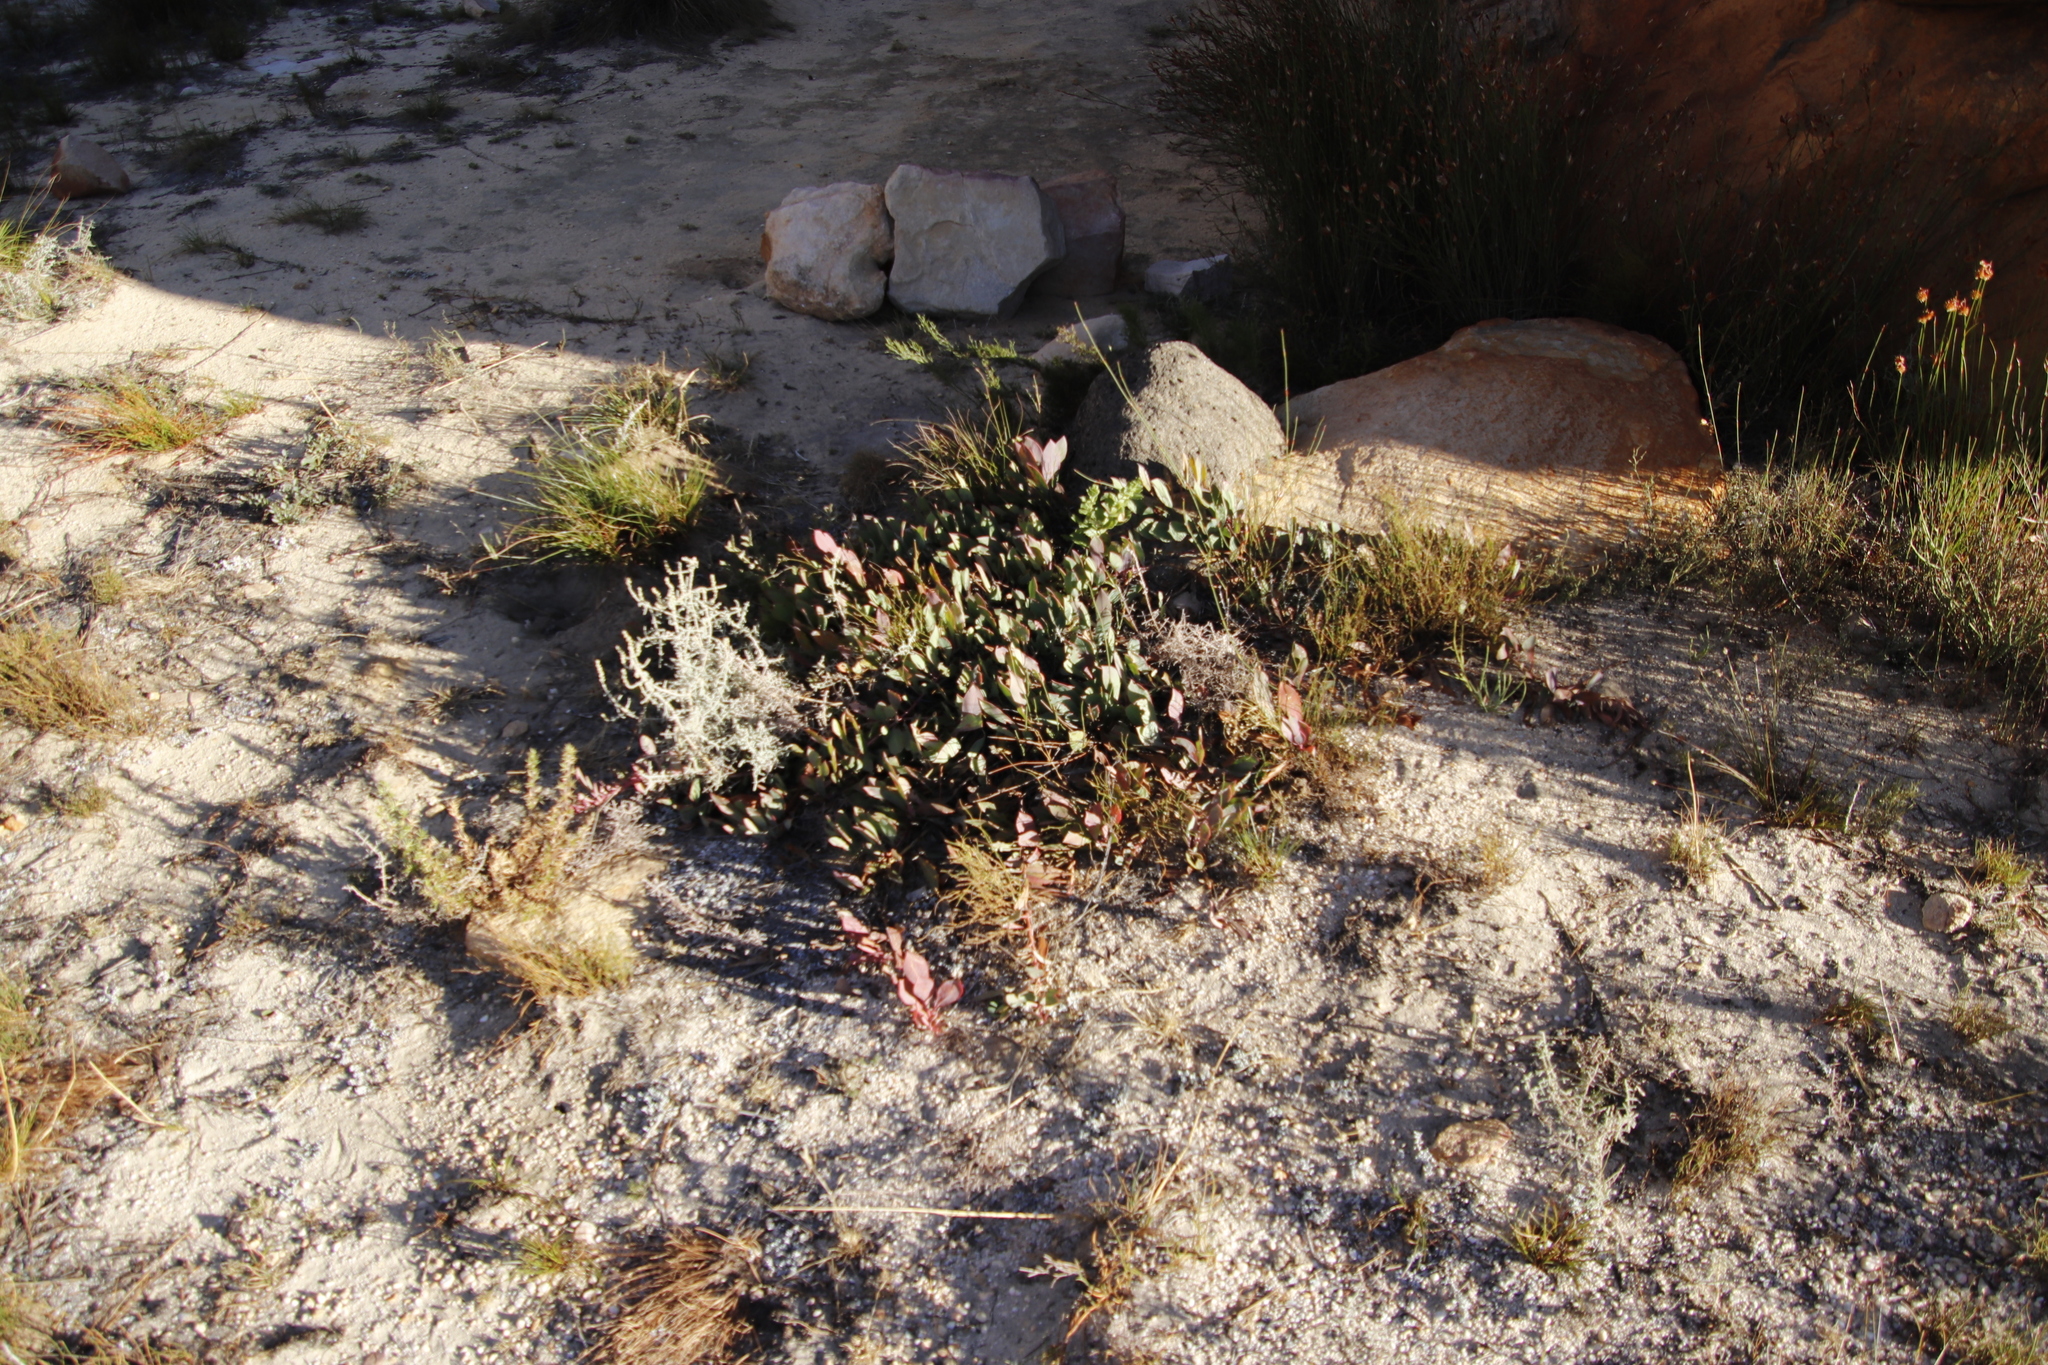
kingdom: Plantae
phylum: Tracheophyta
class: Magnoliopsida
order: Proteales
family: Proteaceae
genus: Protea
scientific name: Protea acaulos
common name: Common ground sugarbush
